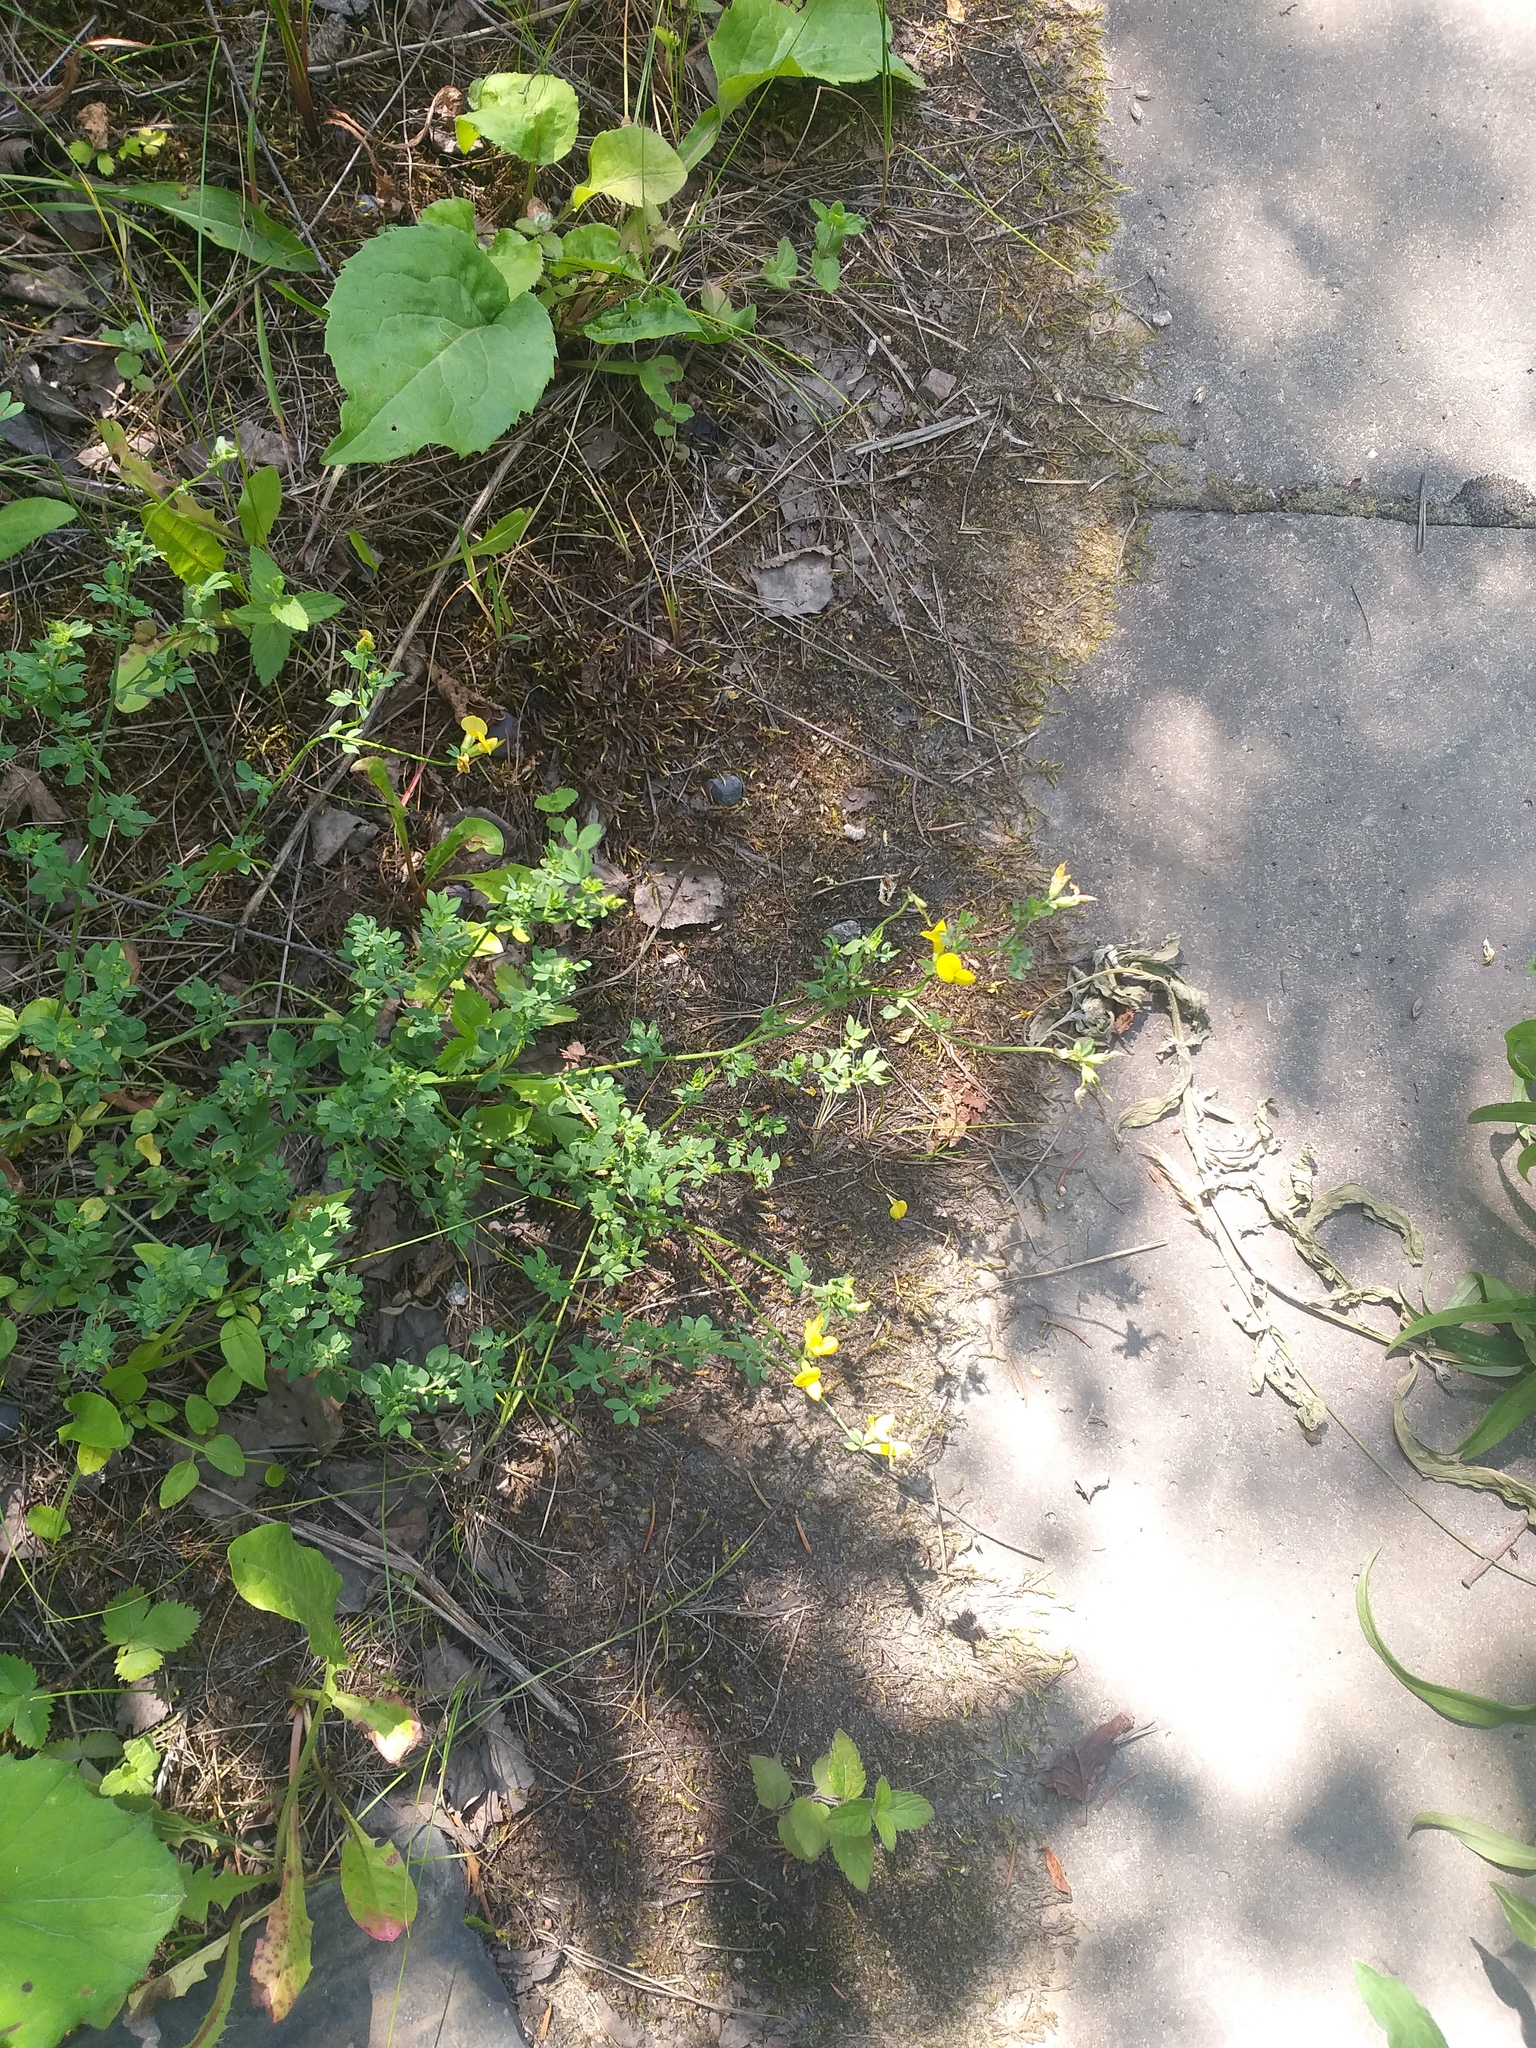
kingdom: Plantae
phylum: Tracheophyta
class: Magnoliopsida
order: Fabales
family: Fabaceae
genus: Lotus
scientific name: Lotus corniculatus
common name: Common bird's-foot-trefoil
